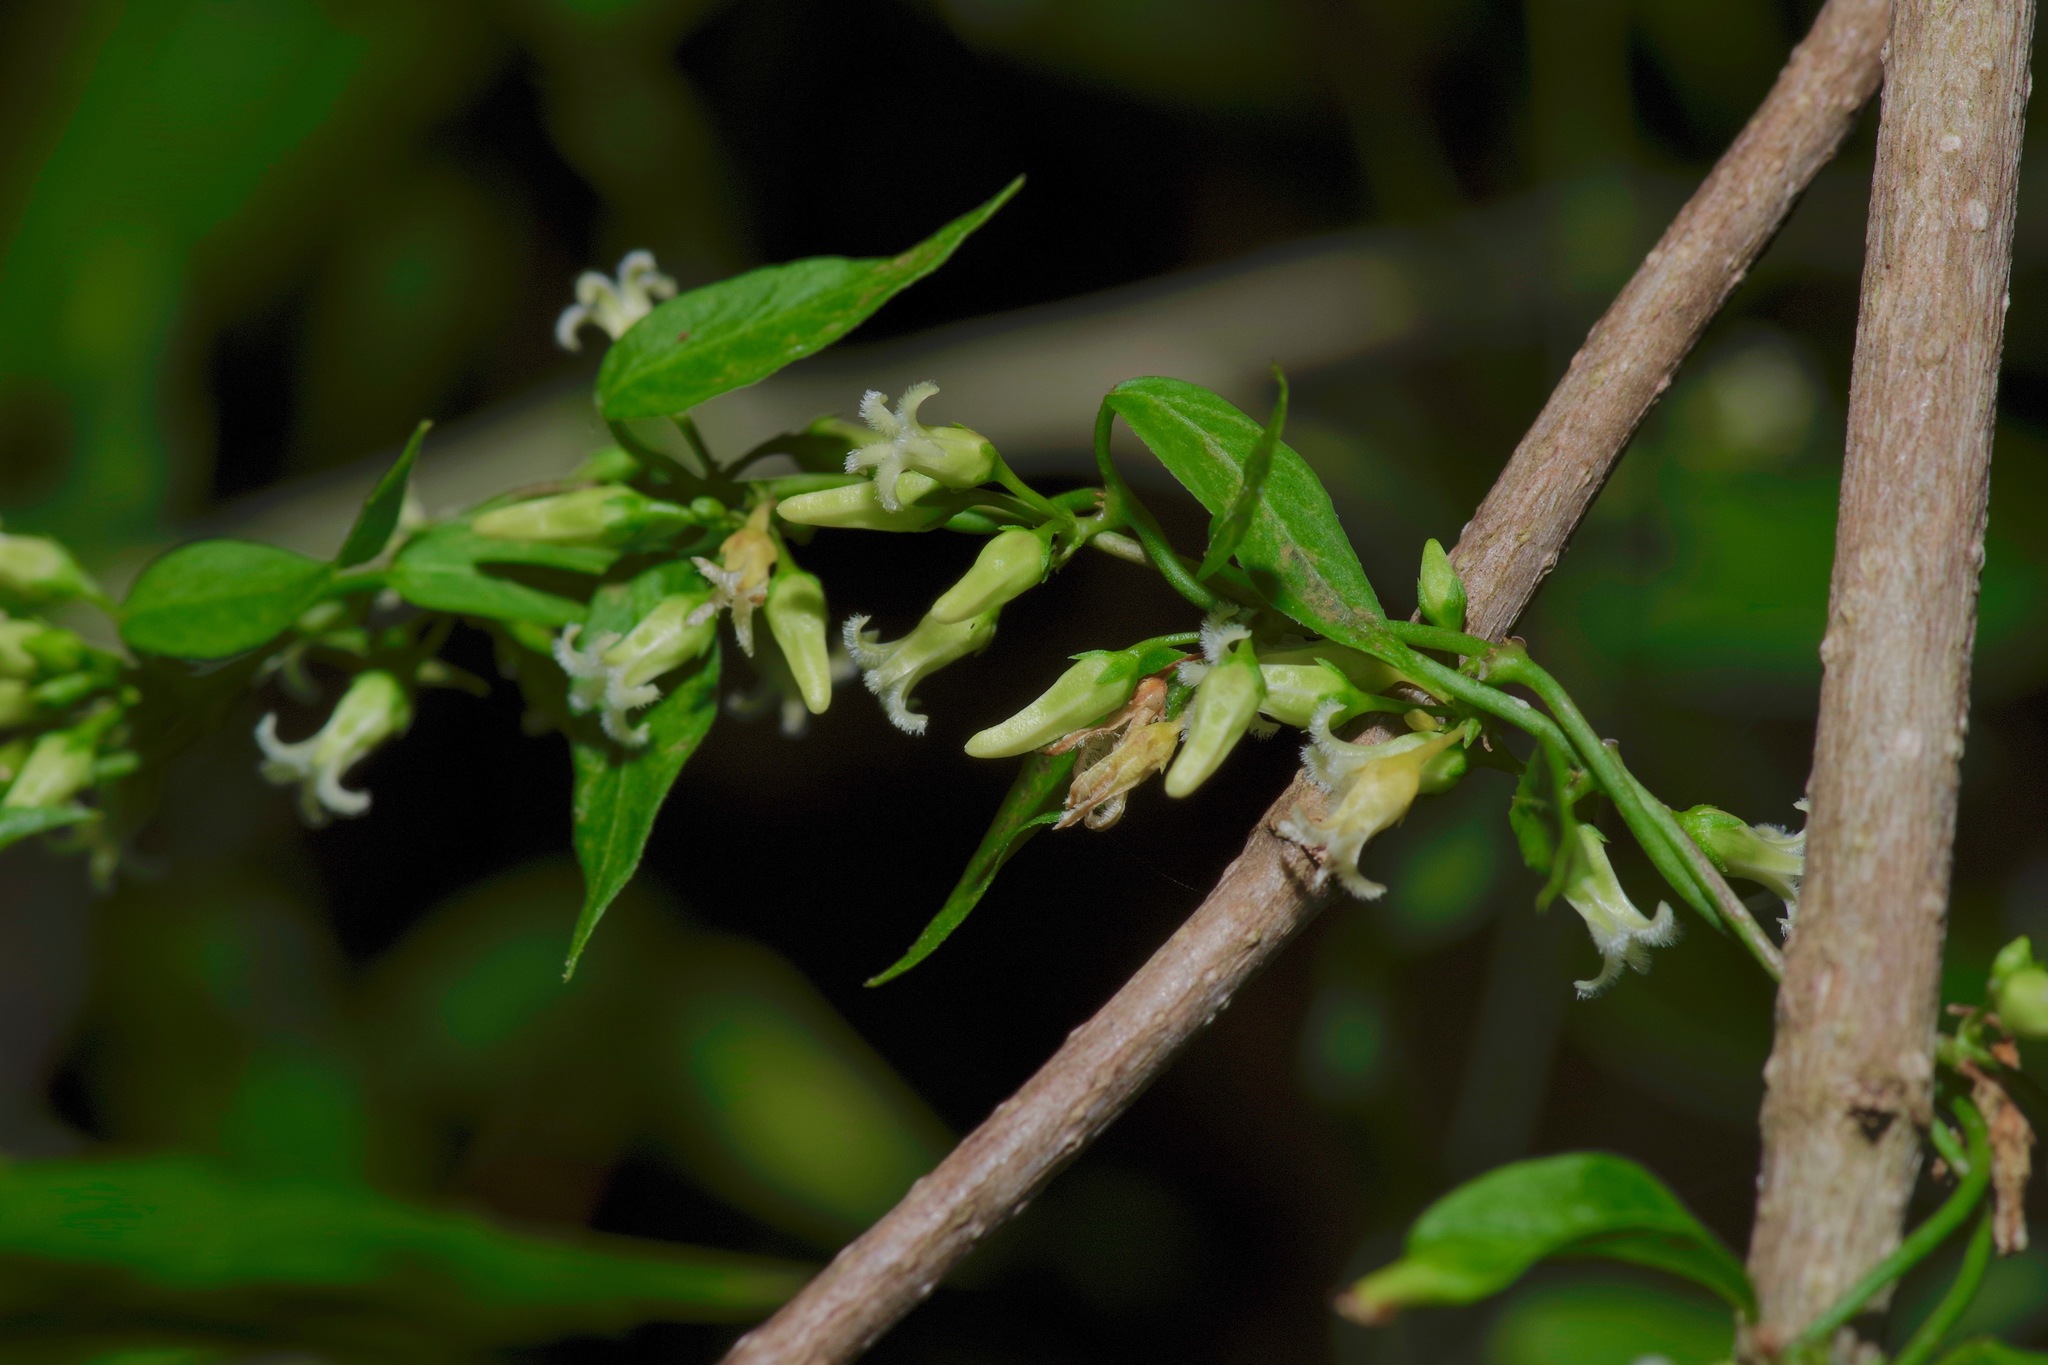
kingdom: Plantae
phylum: Tracheophyta
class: Magnoliopsida
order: Gentianales
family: Apocynaceae
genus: Metastelma
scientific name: Metastelma barbigerum
